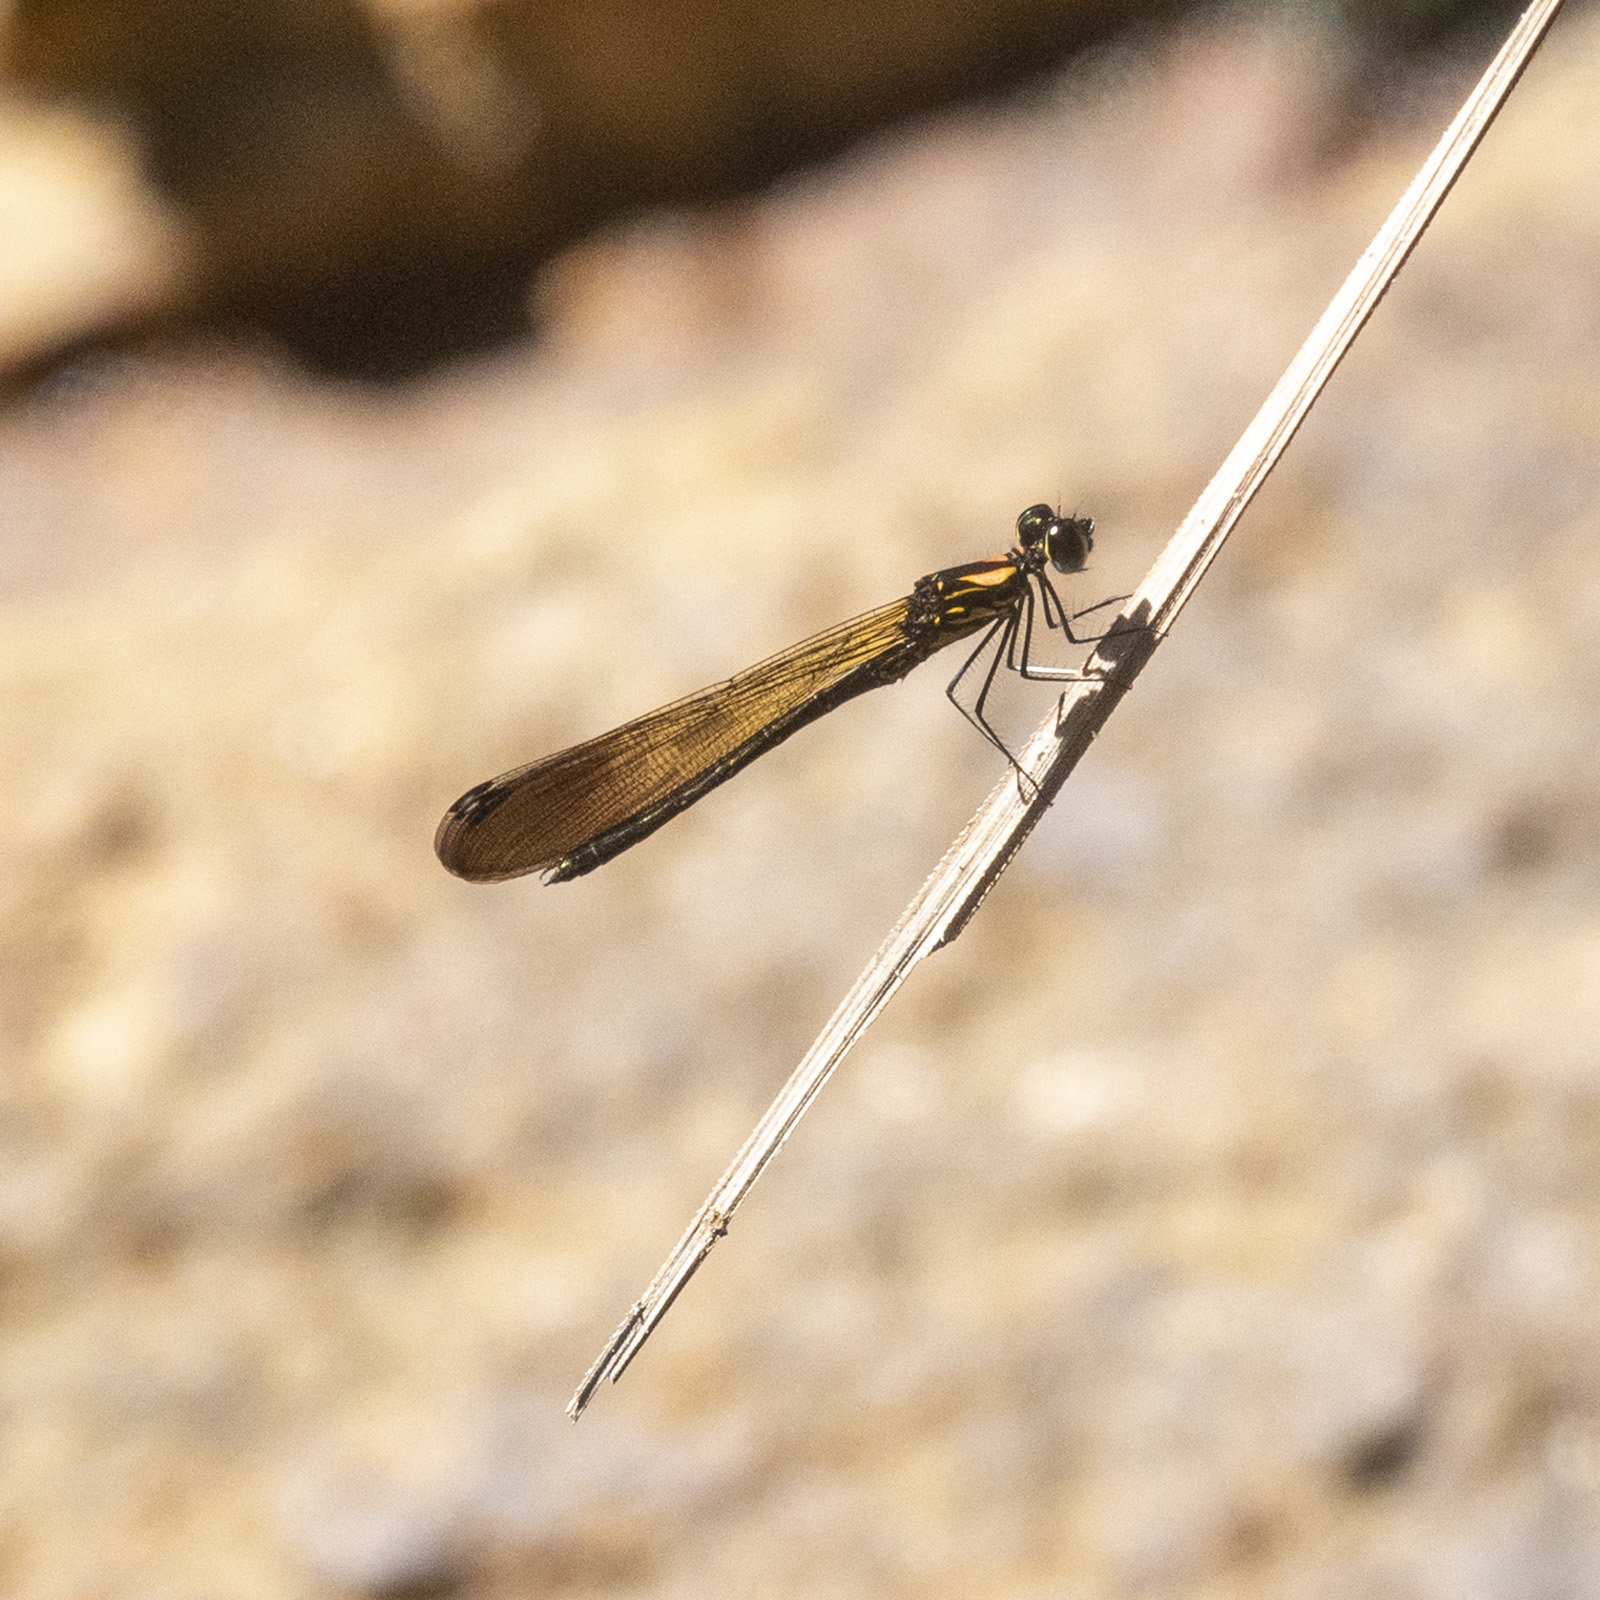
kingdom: Animalia
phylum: Arthropoda
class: Insecta
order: Odonata
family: Chlorocyphidae
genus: Heliocypha
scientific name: Heliocypha bisignata
